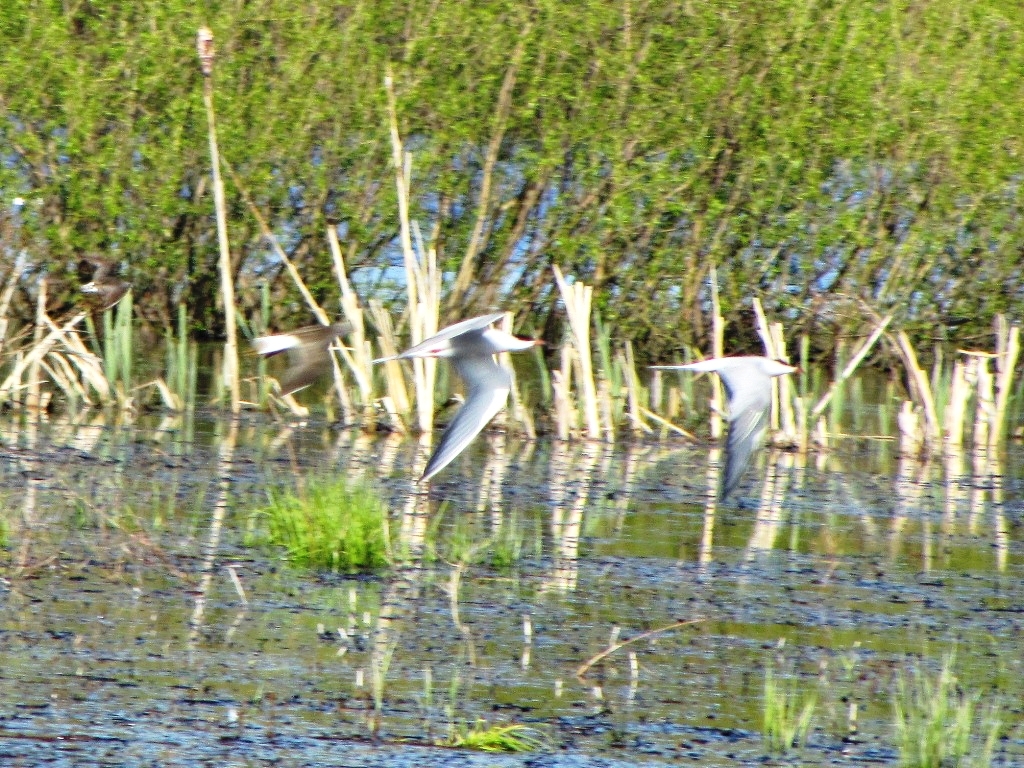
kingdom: Animalia
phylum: Chordata
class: Aves
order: Charadriiformes
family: Laridae
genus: Sterna
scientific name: Sterna hirundo
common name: Common tern
